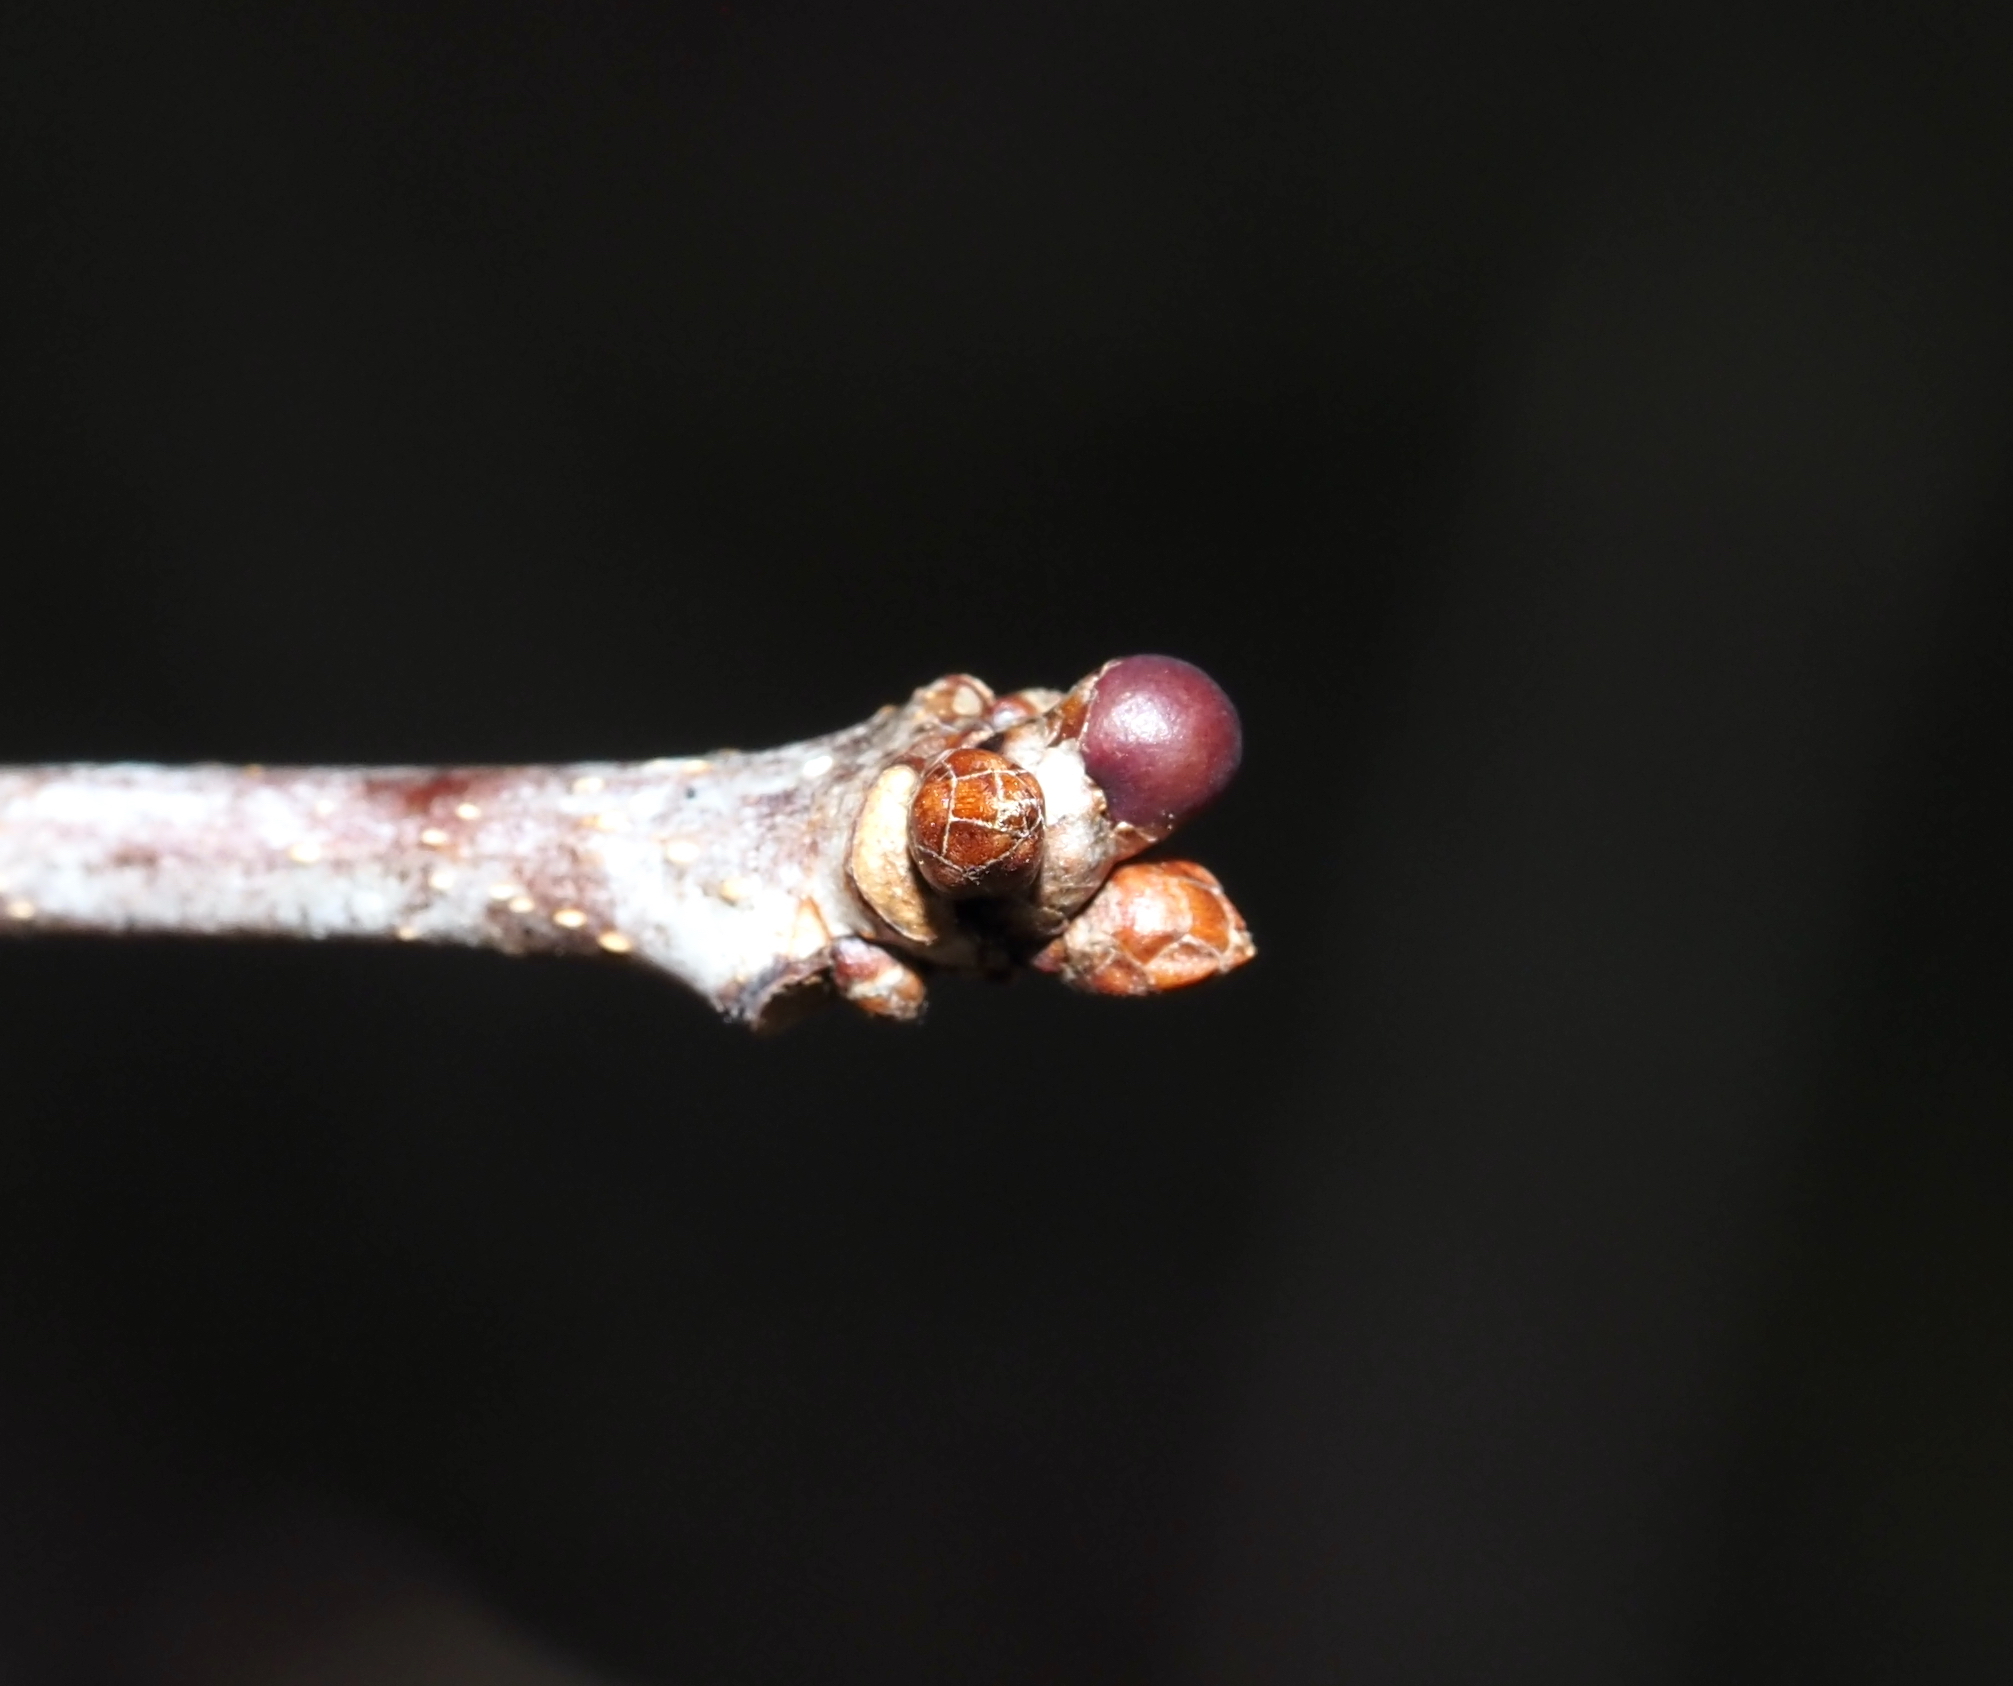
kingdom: Animalia
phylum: Arthropoda
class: Insecta
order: Hymenoptera
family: Cynipidae
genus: Neuroterus
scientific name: Neuroterus
